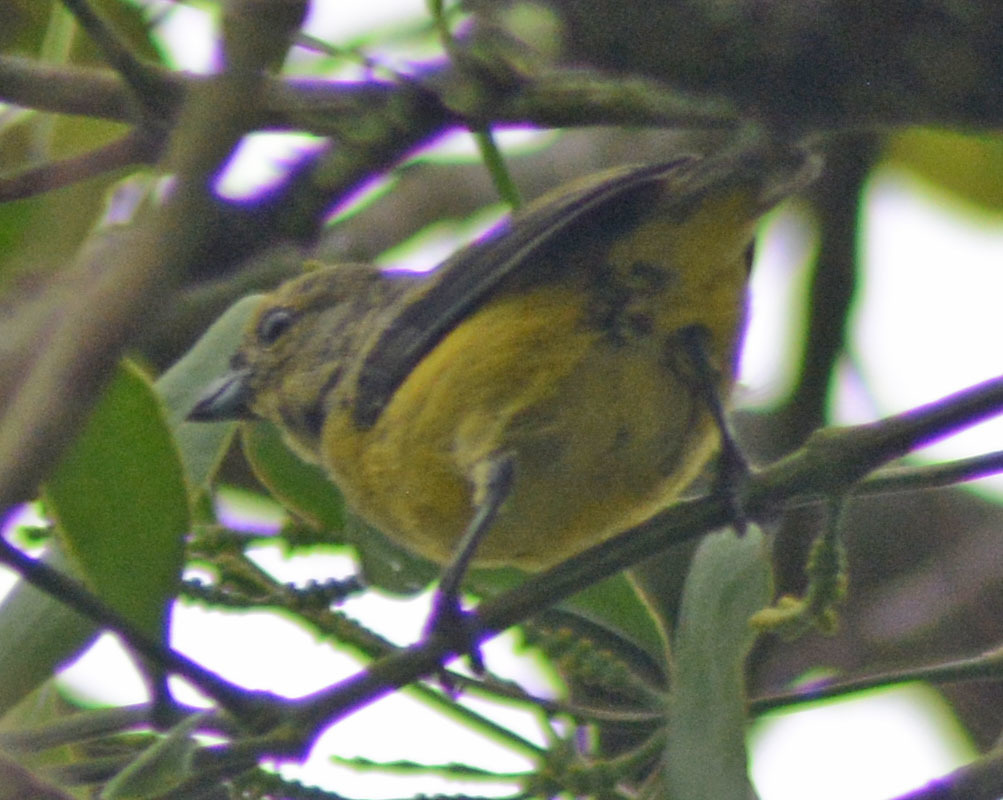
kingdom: Animalia
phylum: Chordata
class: Aves
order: Passeriformes
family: Fringillidae
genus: Euphonia
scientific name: Euphonia affinis
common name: Scrub euphonia
